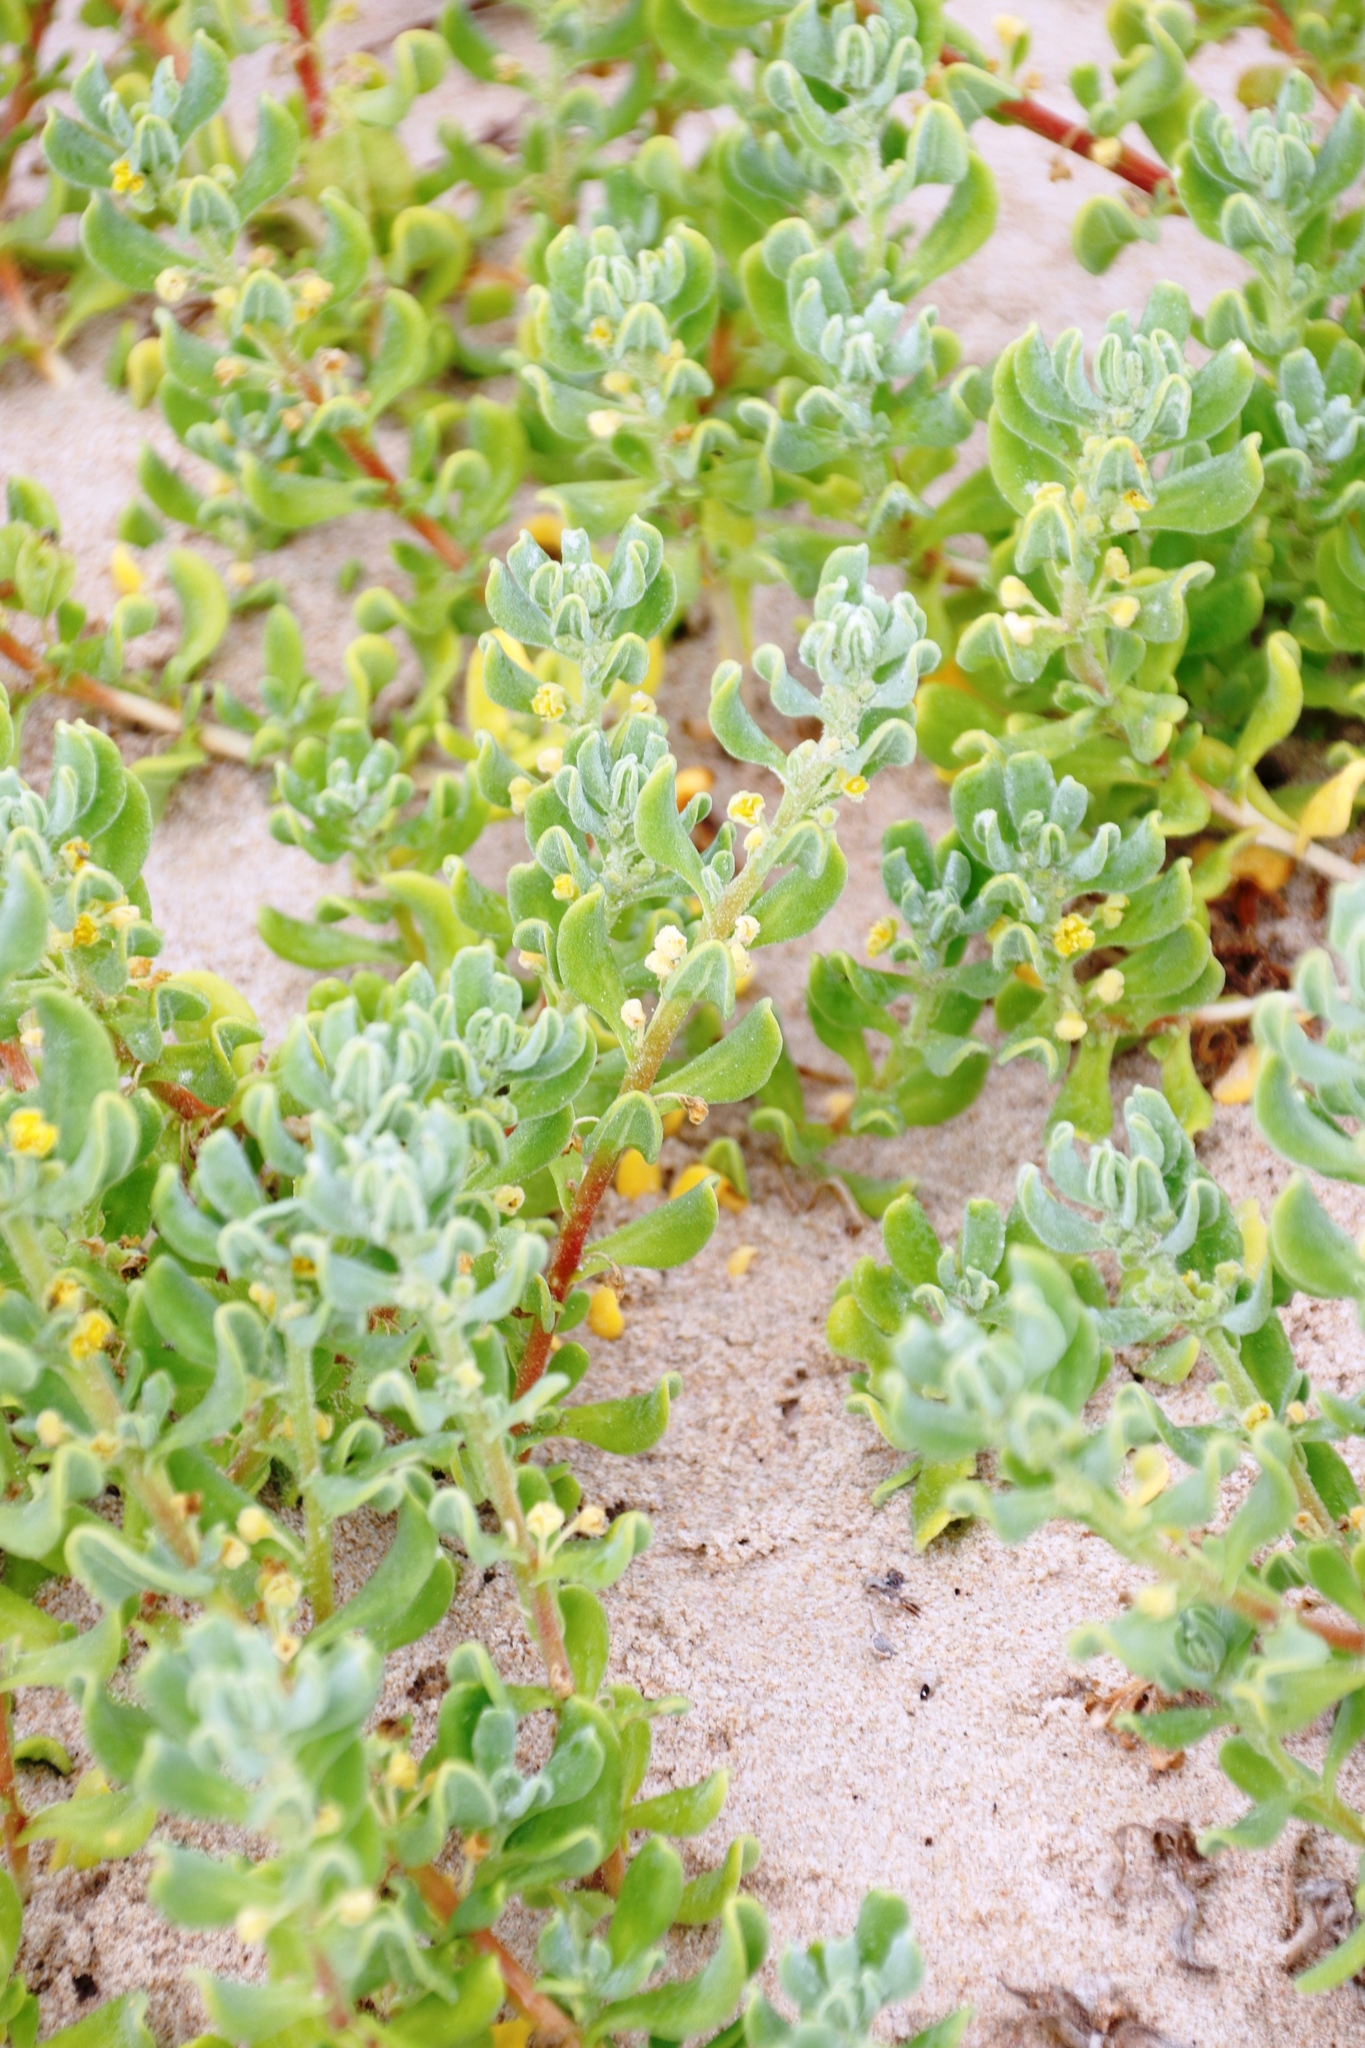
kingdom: Plantae
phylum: Tracheophyta
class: Magnoliopsida
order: Caryophyllales
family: Aizoaceae
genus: Tetragonia
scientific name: Tetragonia decumbens
